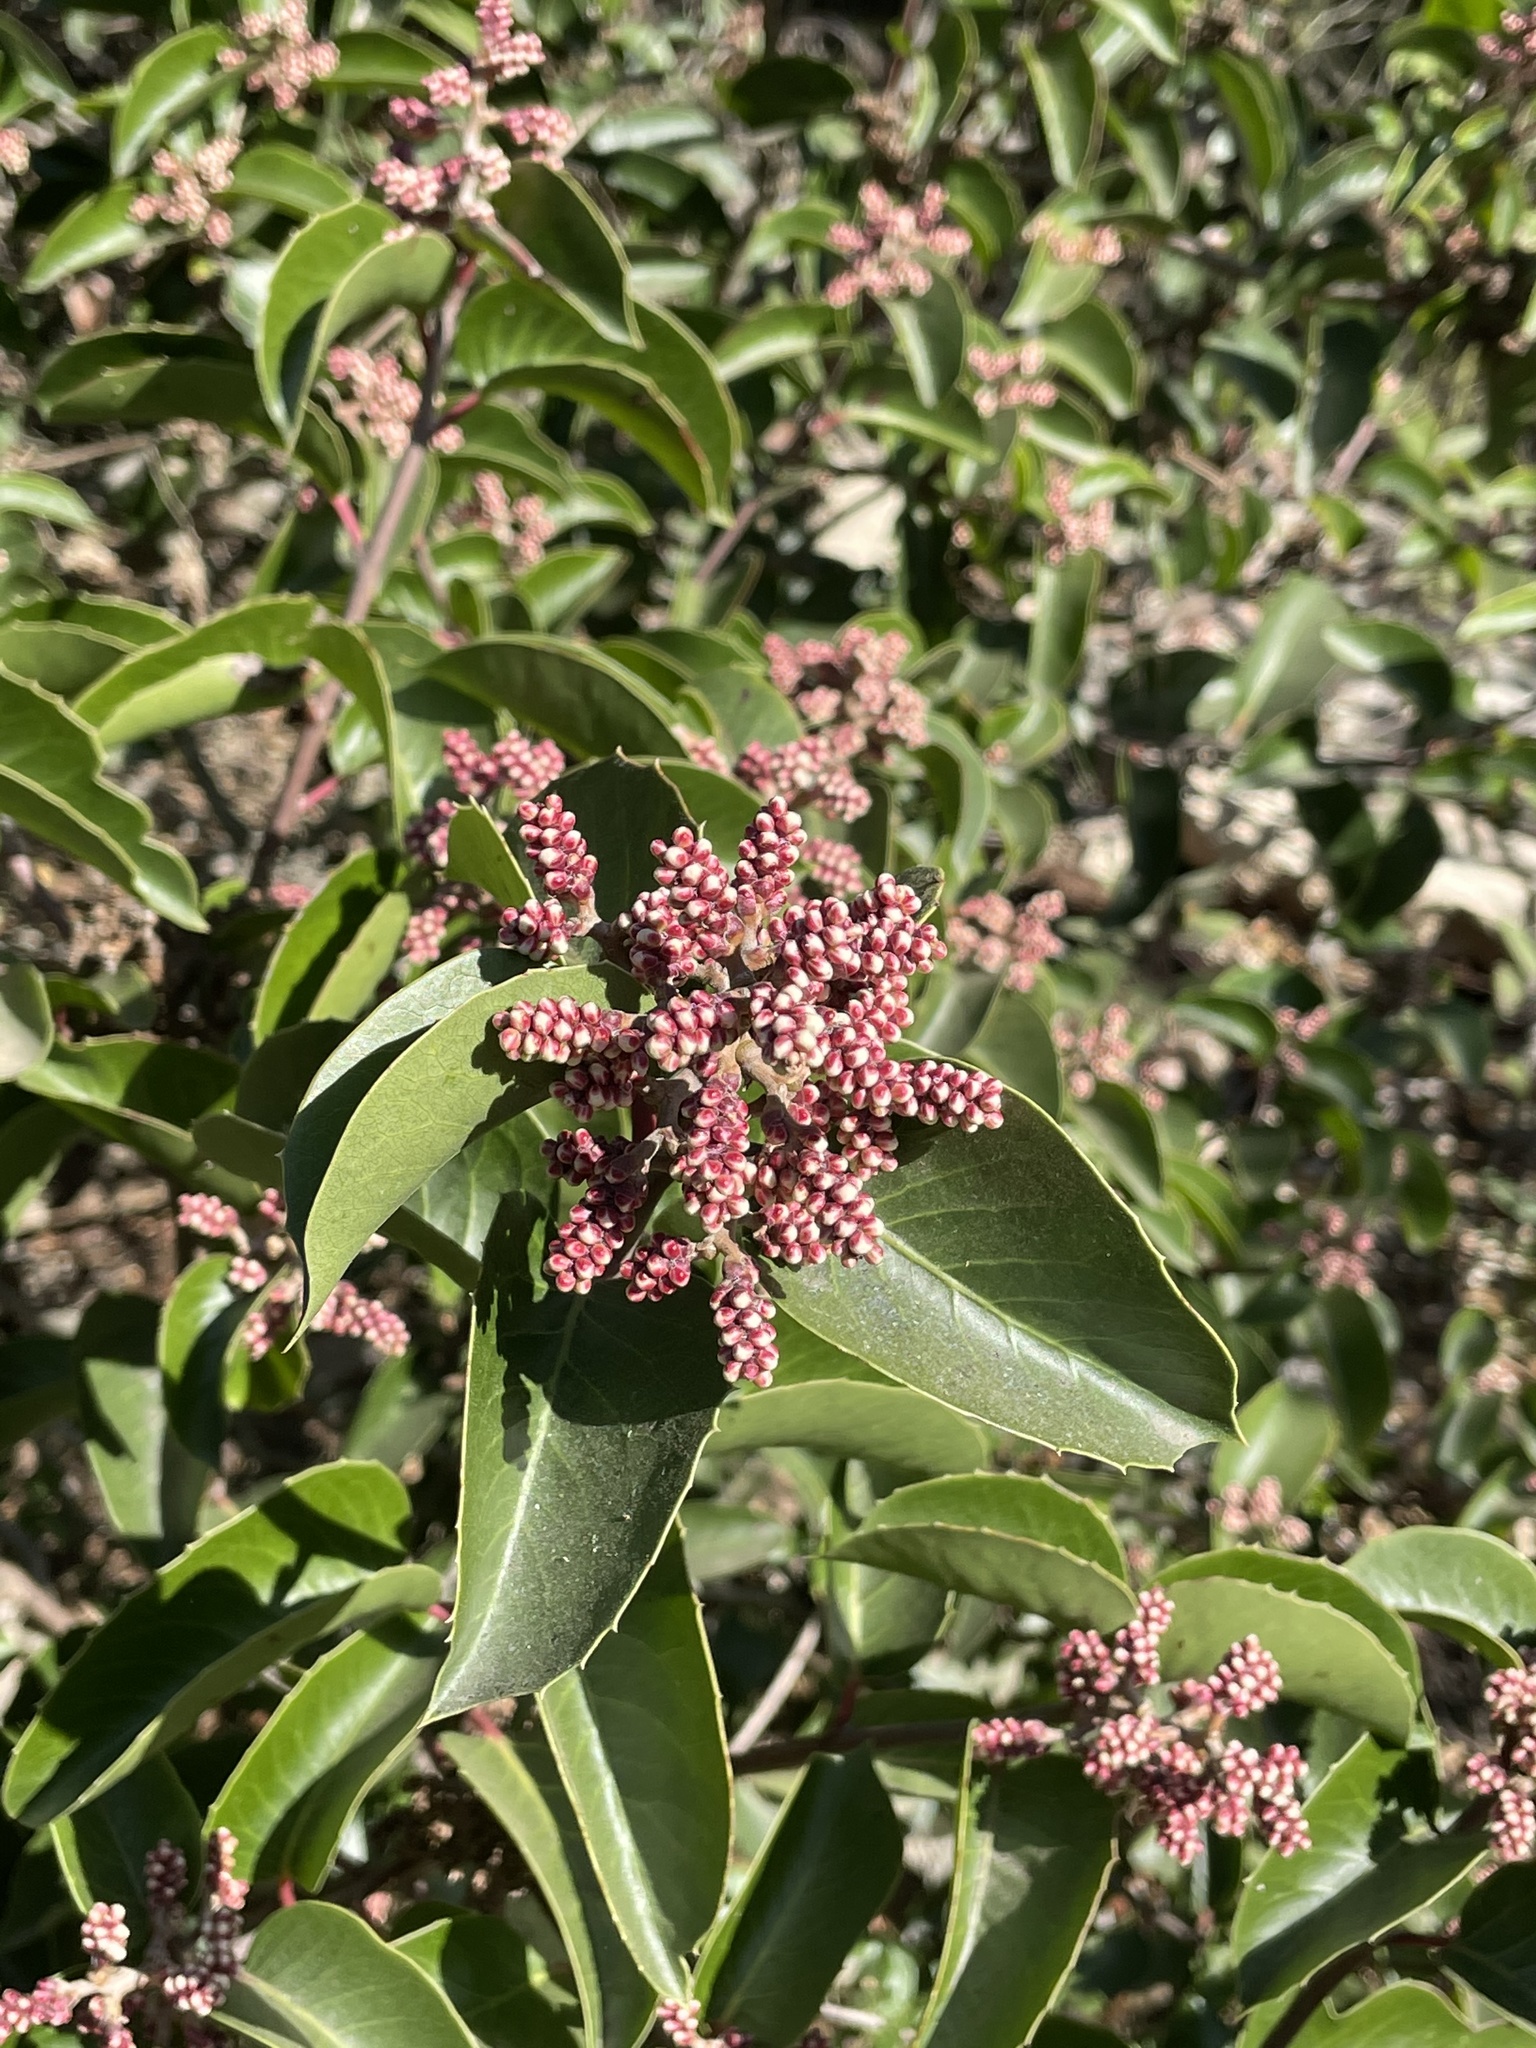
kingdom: Plantae
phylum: Tracheophyta
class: Magnoliopsida
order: Sapindales
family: Anacardiaceae
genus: Rhus
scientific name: Rhus ovata
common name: Sugar sumac
